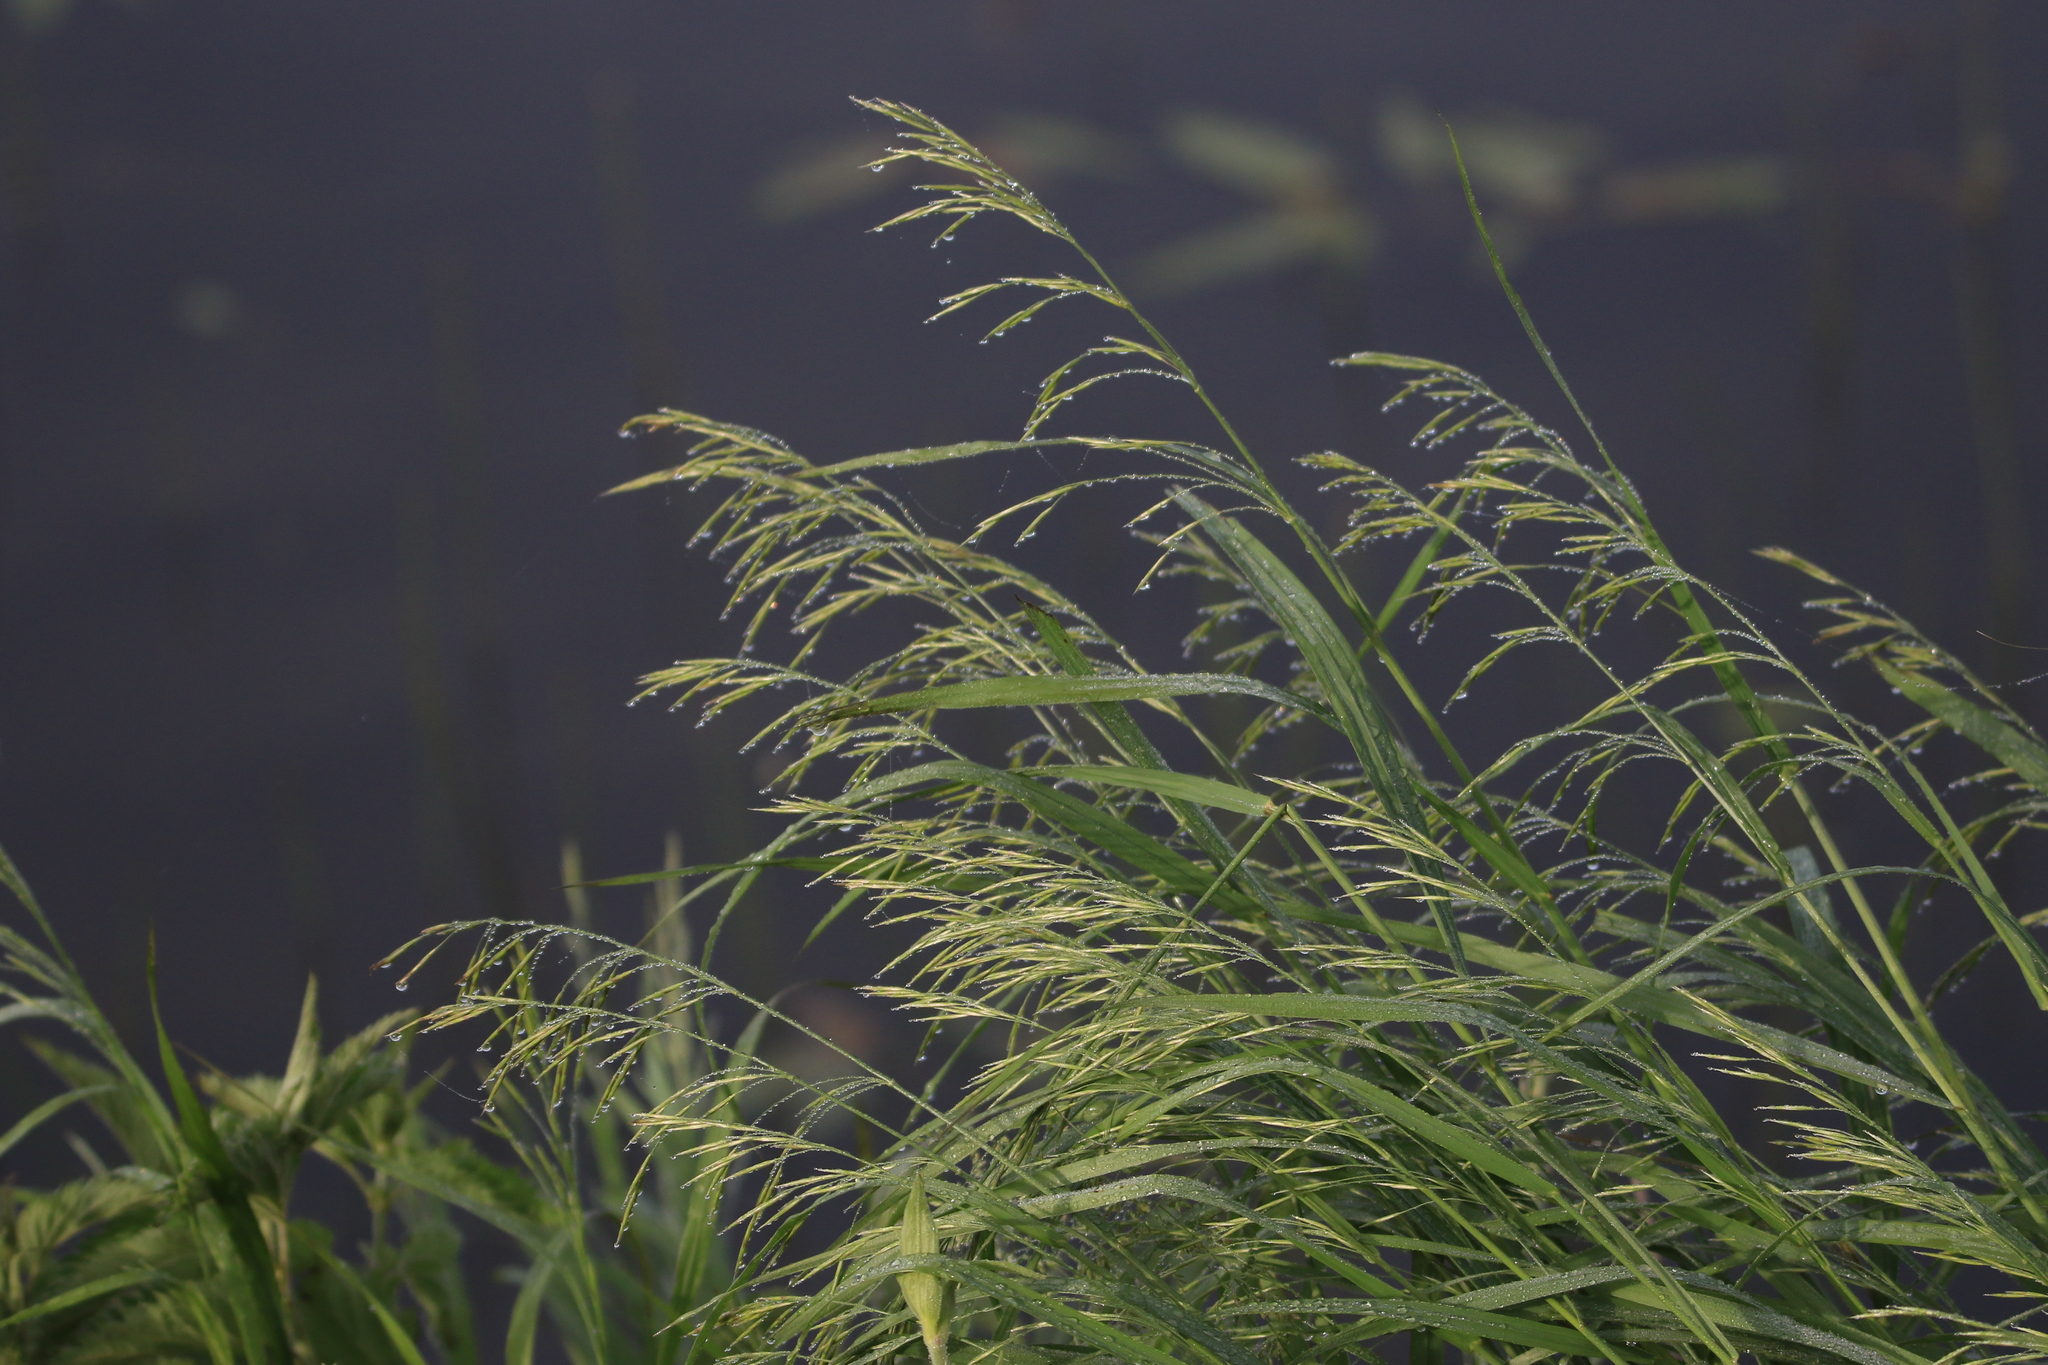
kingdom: Plantae
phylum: Tracheophyta
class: Liliopsida
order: Poales
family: Poaceae
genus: Bromus
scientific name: Bromus inermis
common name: Smooth brome
